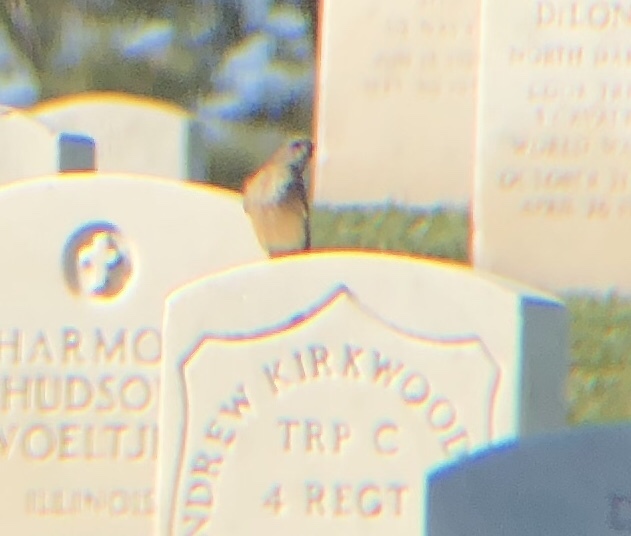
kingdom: Animalia
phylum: Chordata
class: Aves
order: Passeriformes
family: Tyrannidae
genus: Sayornis
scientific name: Sayornis saya
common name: Say's phoebe
